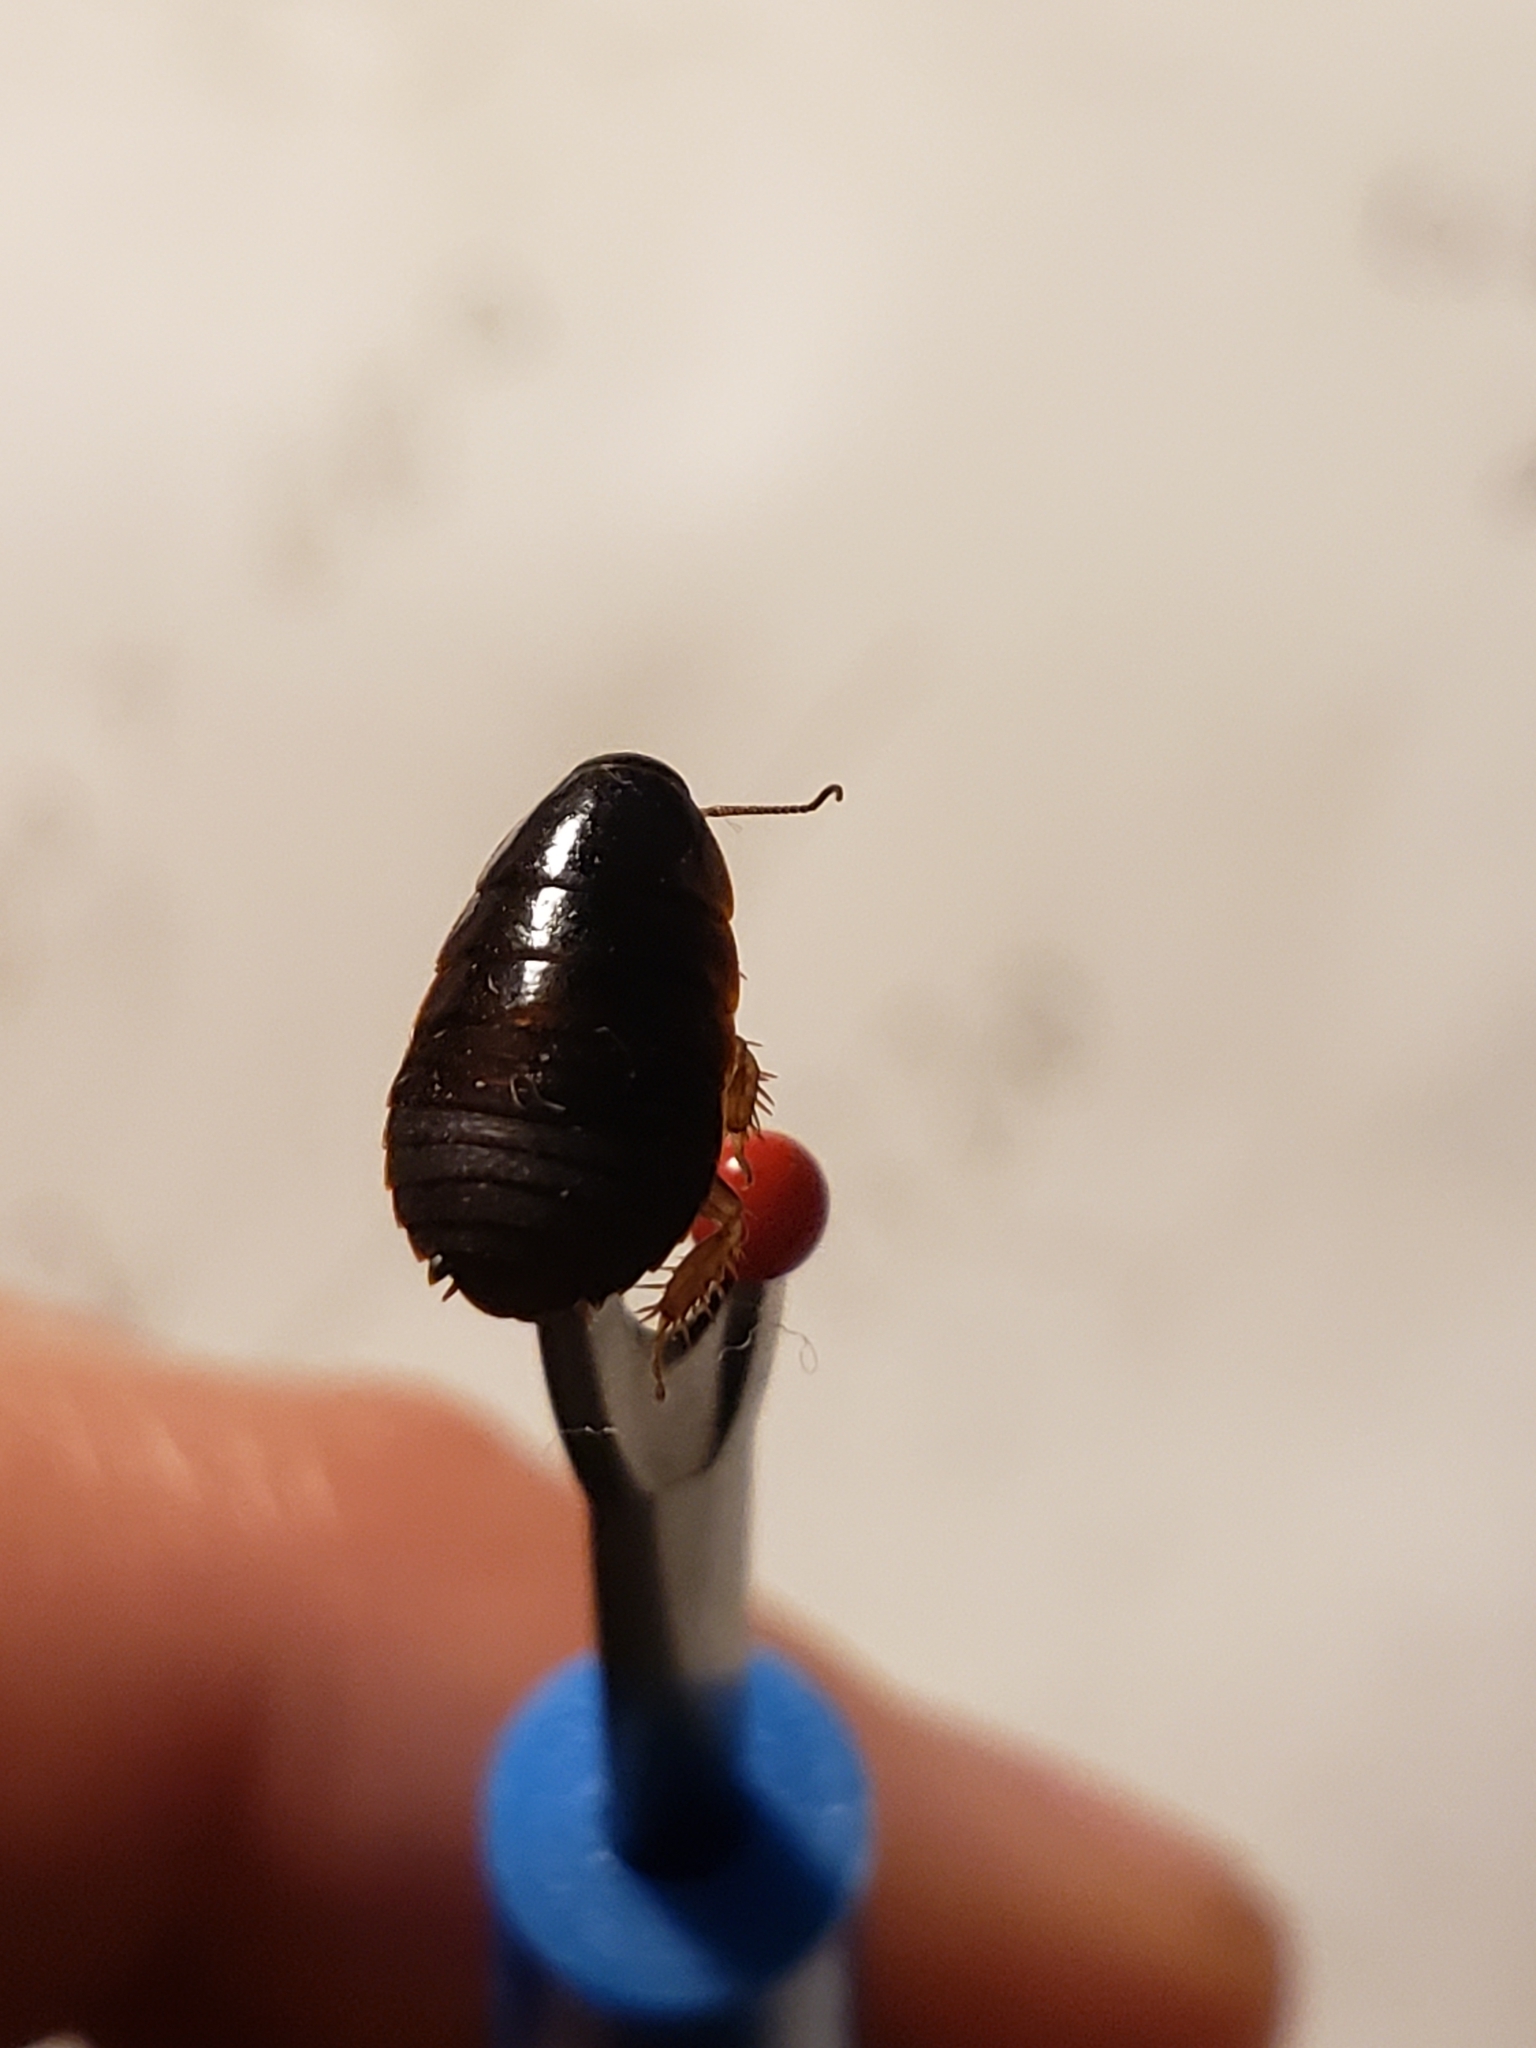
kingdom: Animalia
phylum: Arthropoda
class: Insecta
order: Blattodea
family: Blaberidae
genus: Pycnoscelus
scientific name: Pycnoscelus surinamensis
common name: Surinam cockroach
